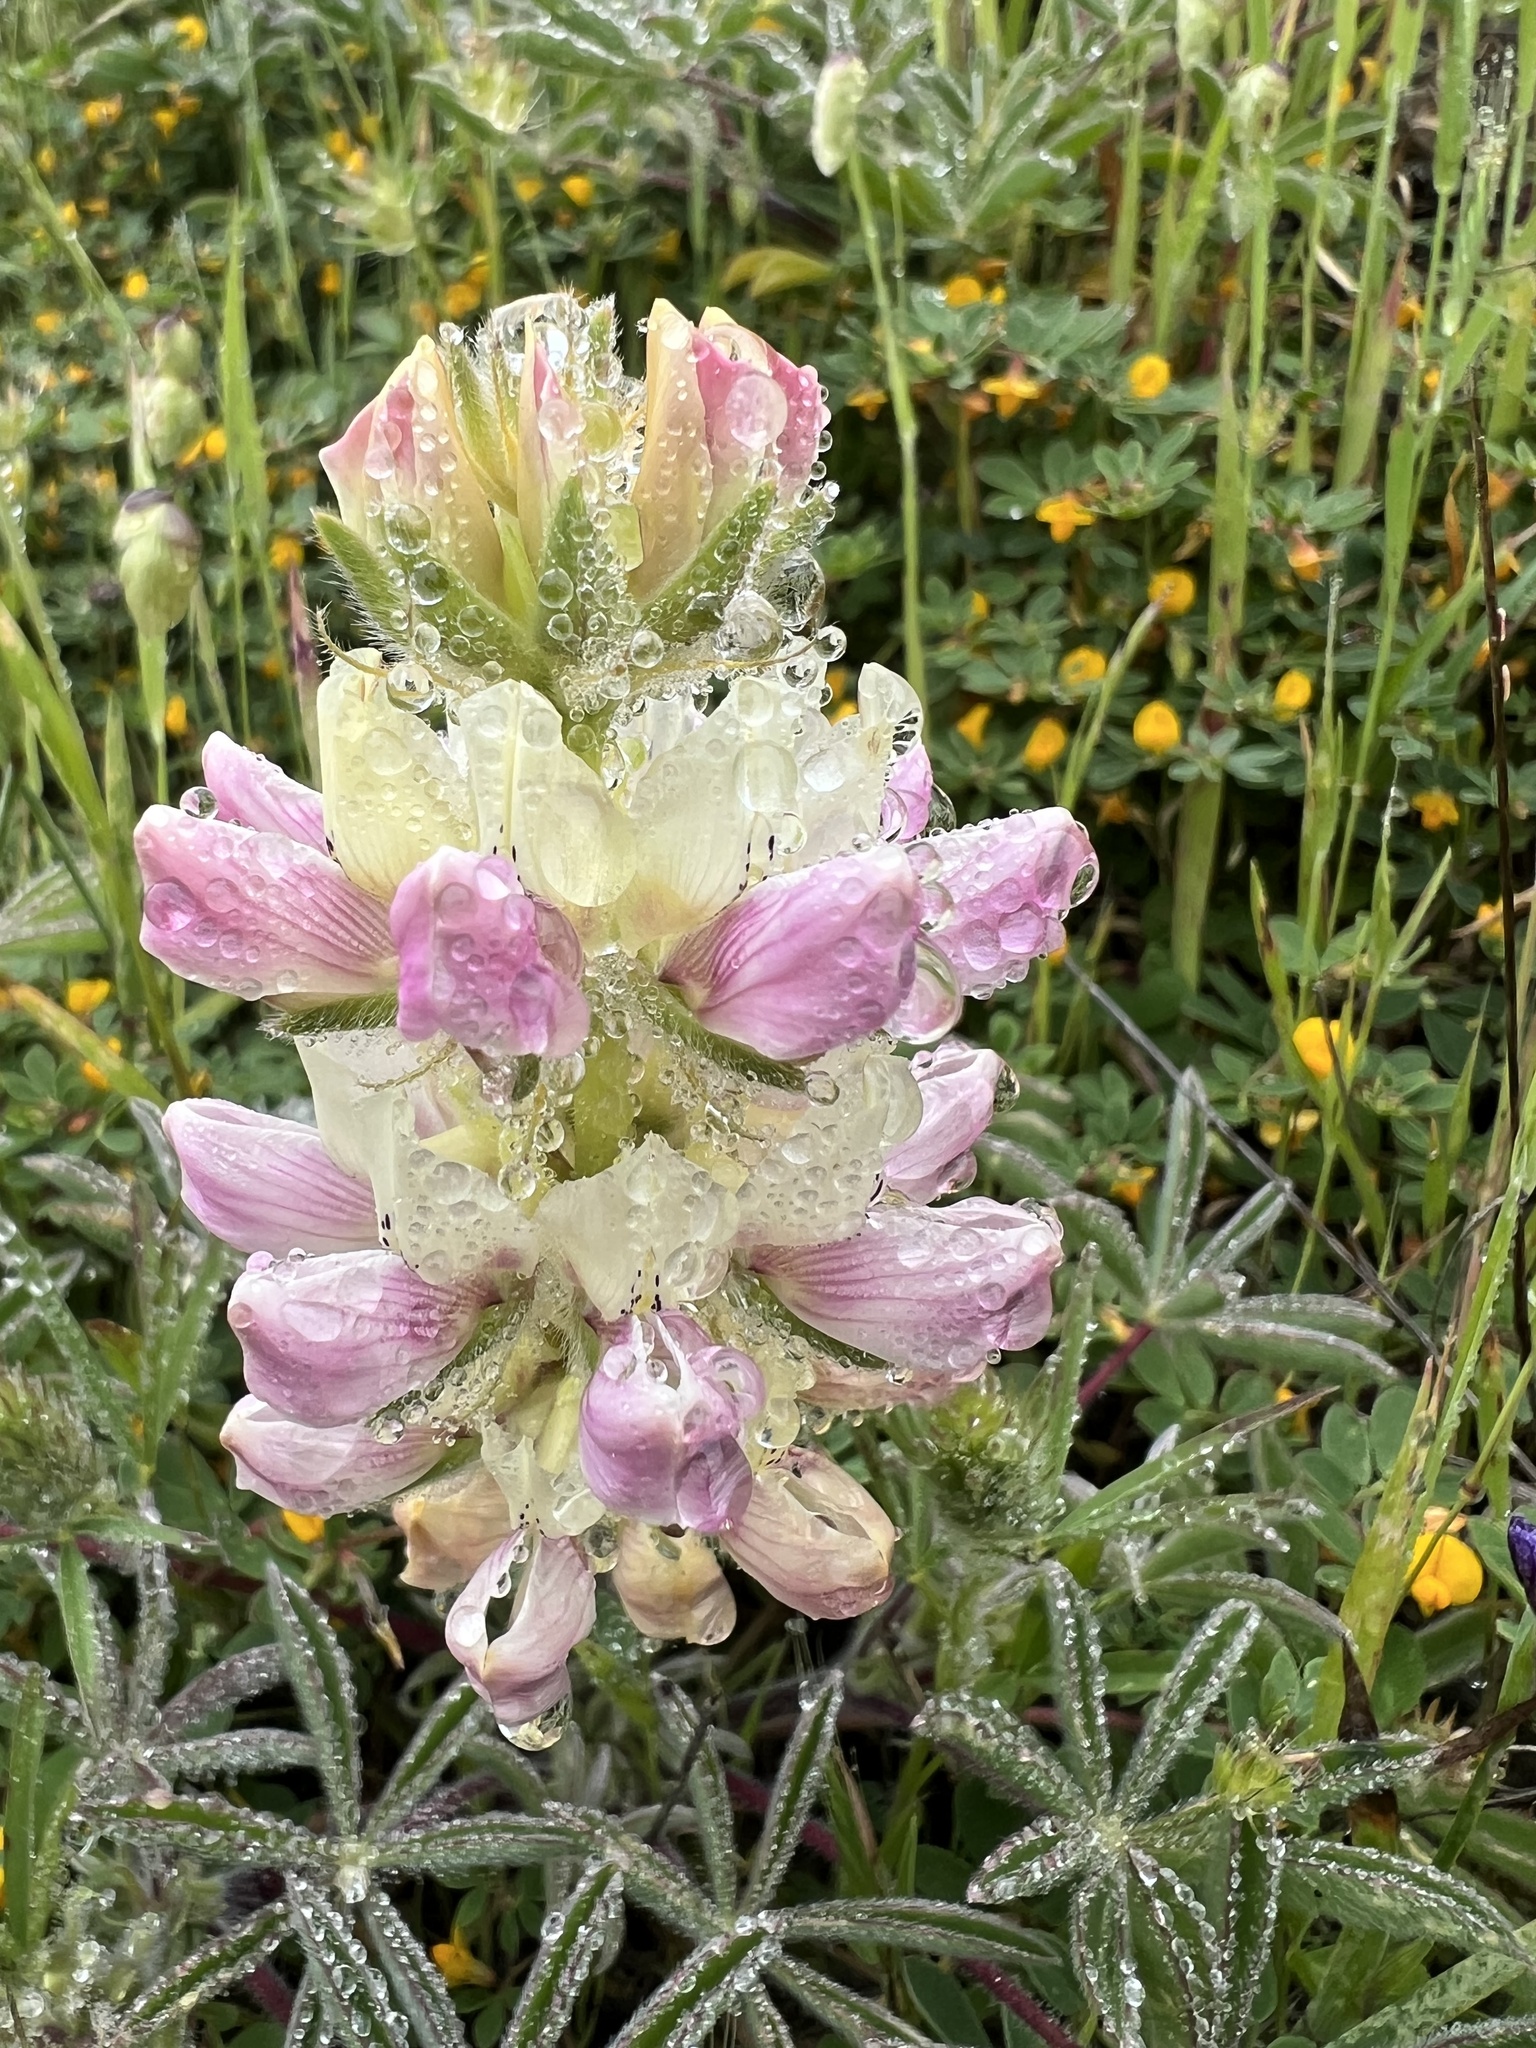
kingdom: Plantae
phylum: Tracheophyta
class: Magnoliopsida
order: Fabales
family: Fabaceae
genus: Lupinus
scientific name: Lupinus microcarpus
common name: Chick lupine
